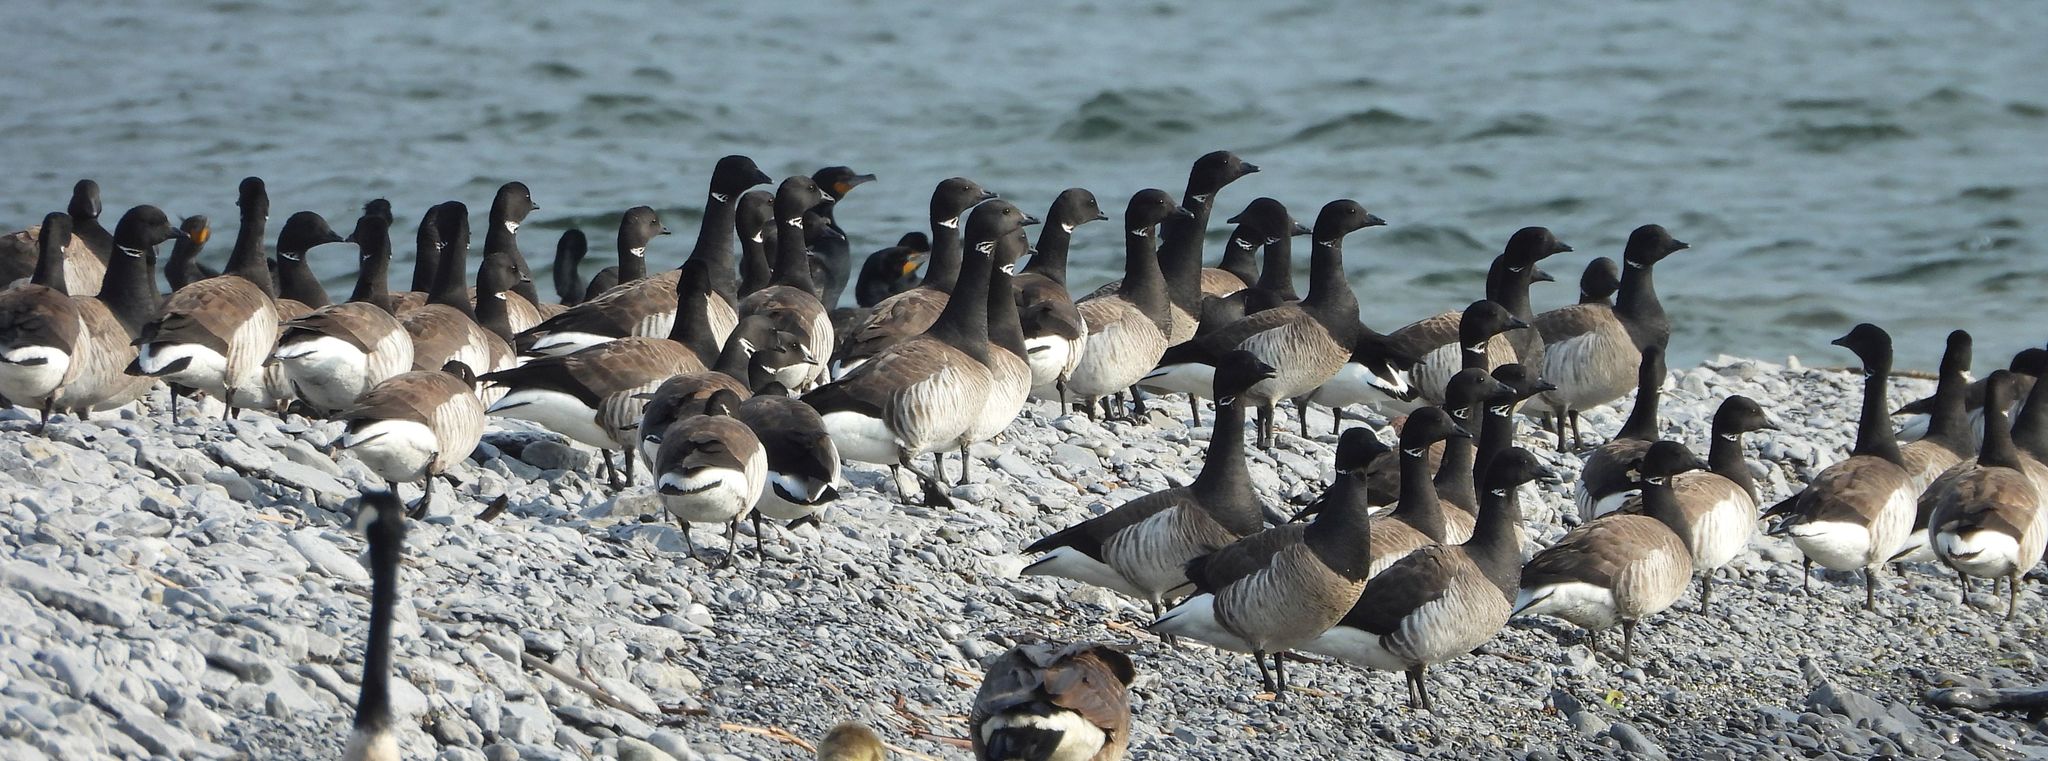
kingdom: Animalia
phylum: Chordata
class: Aves
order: Anseriformes
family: Anatidae
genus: Branta
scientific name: Branta bernicla
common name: Brant goose
